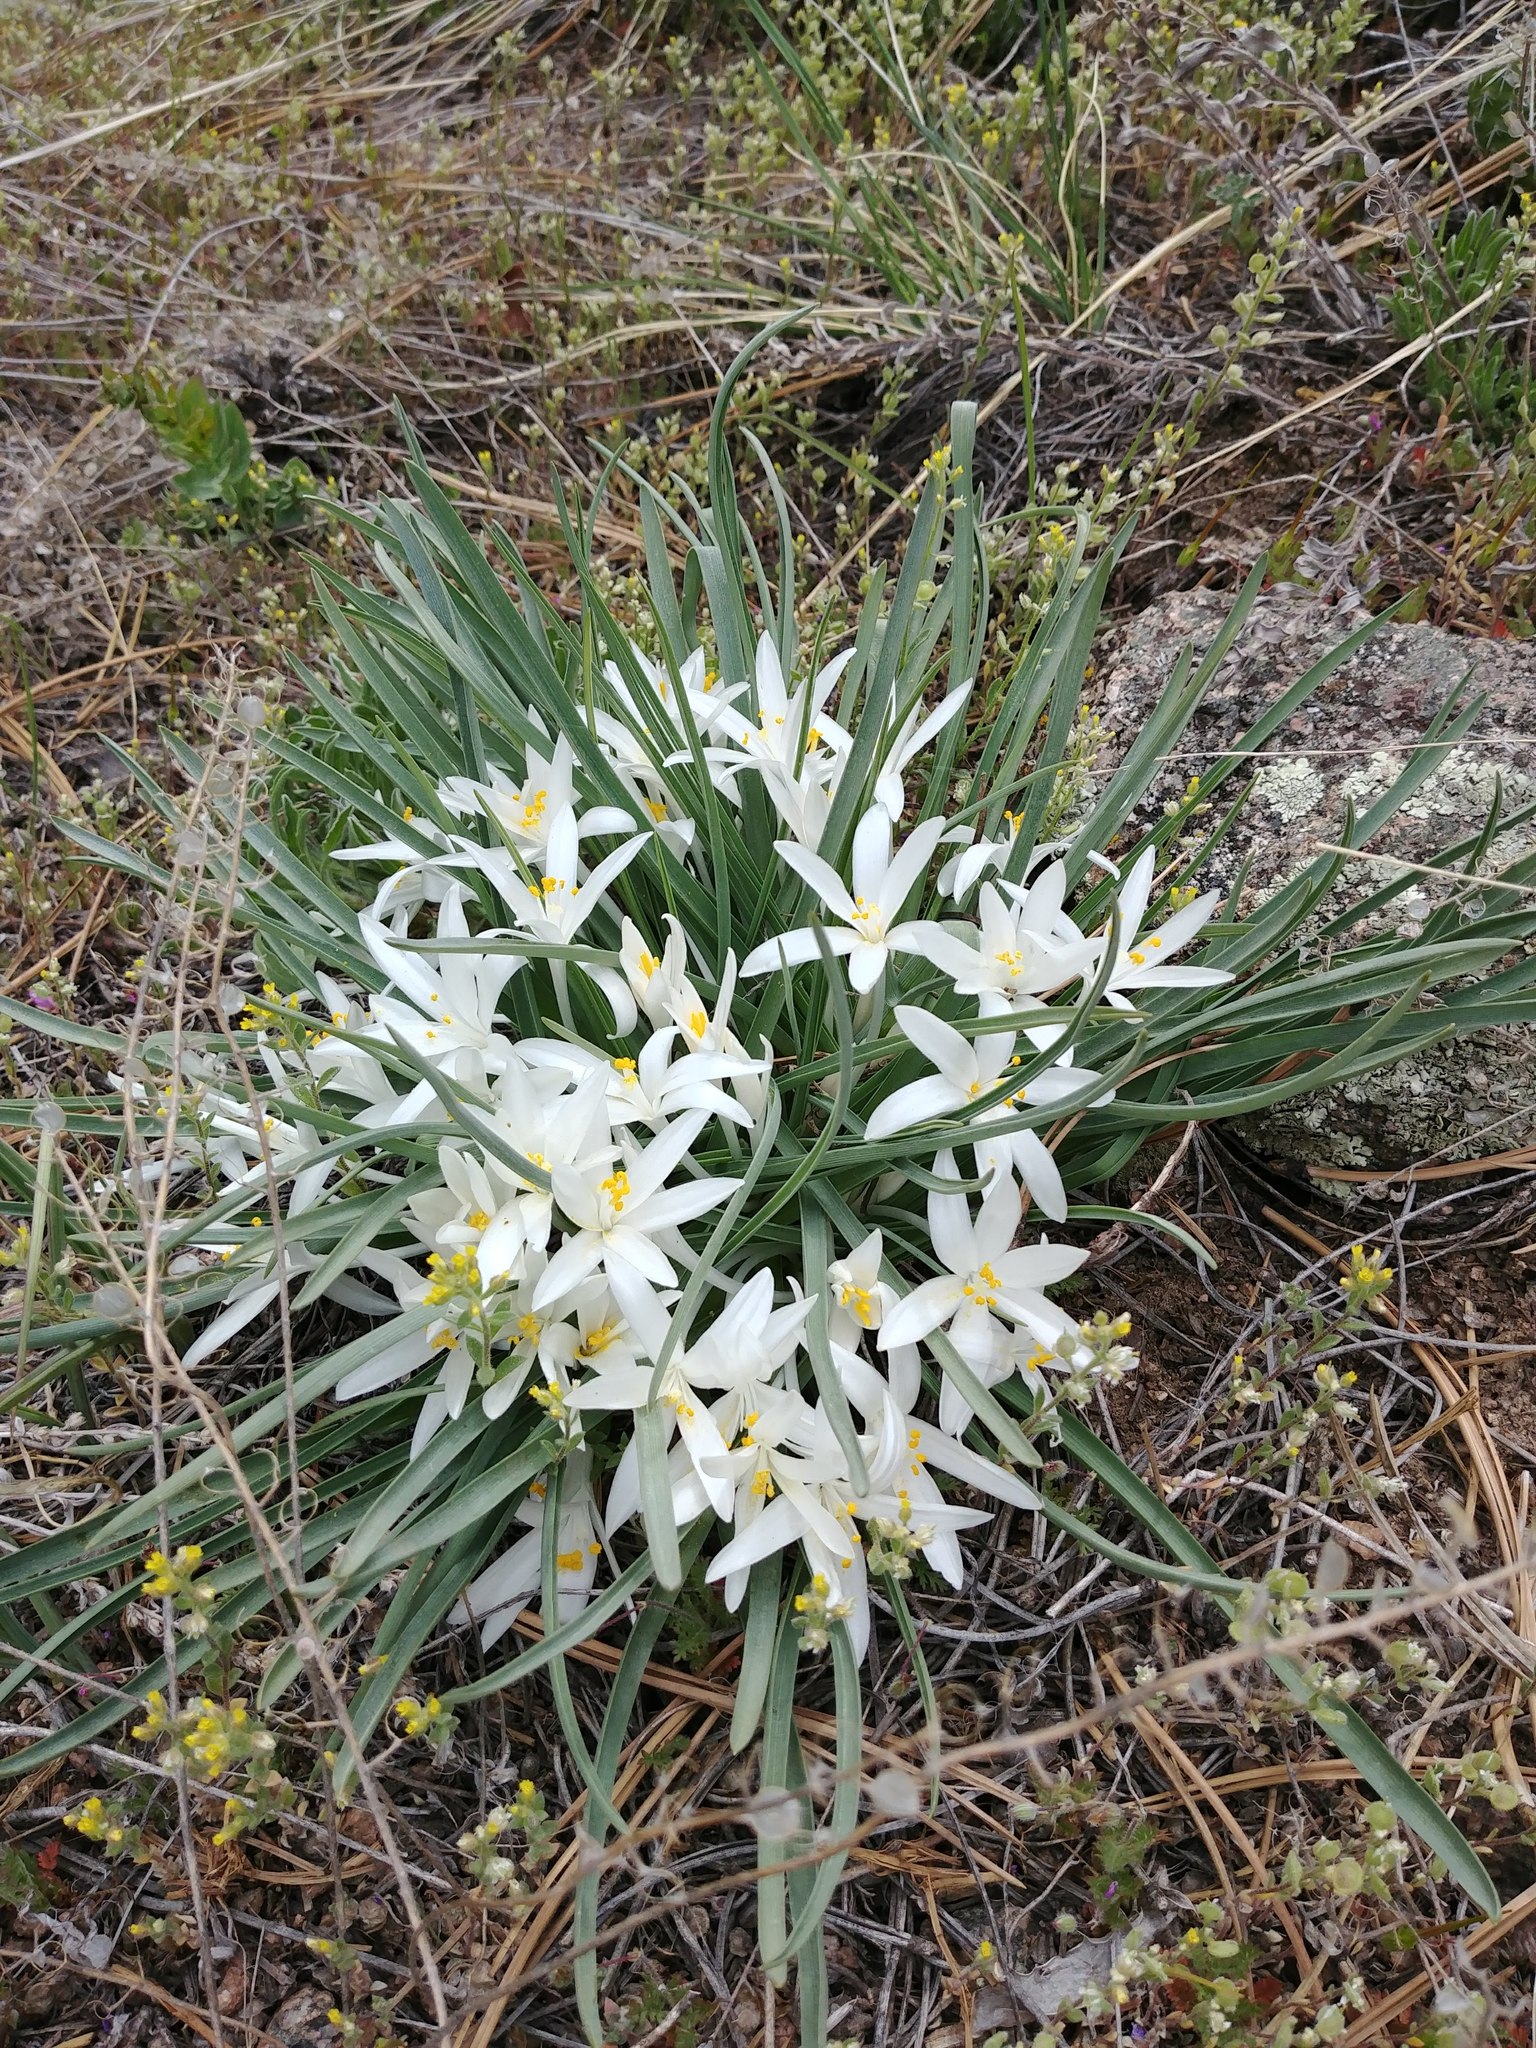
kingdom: Plantae
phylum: Tracheophyta
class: Liliopsida
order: Asparagales
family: Asparagaceae
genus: Leucocrinum
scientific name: Leucocrinum montanum
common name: Mountain-lily
